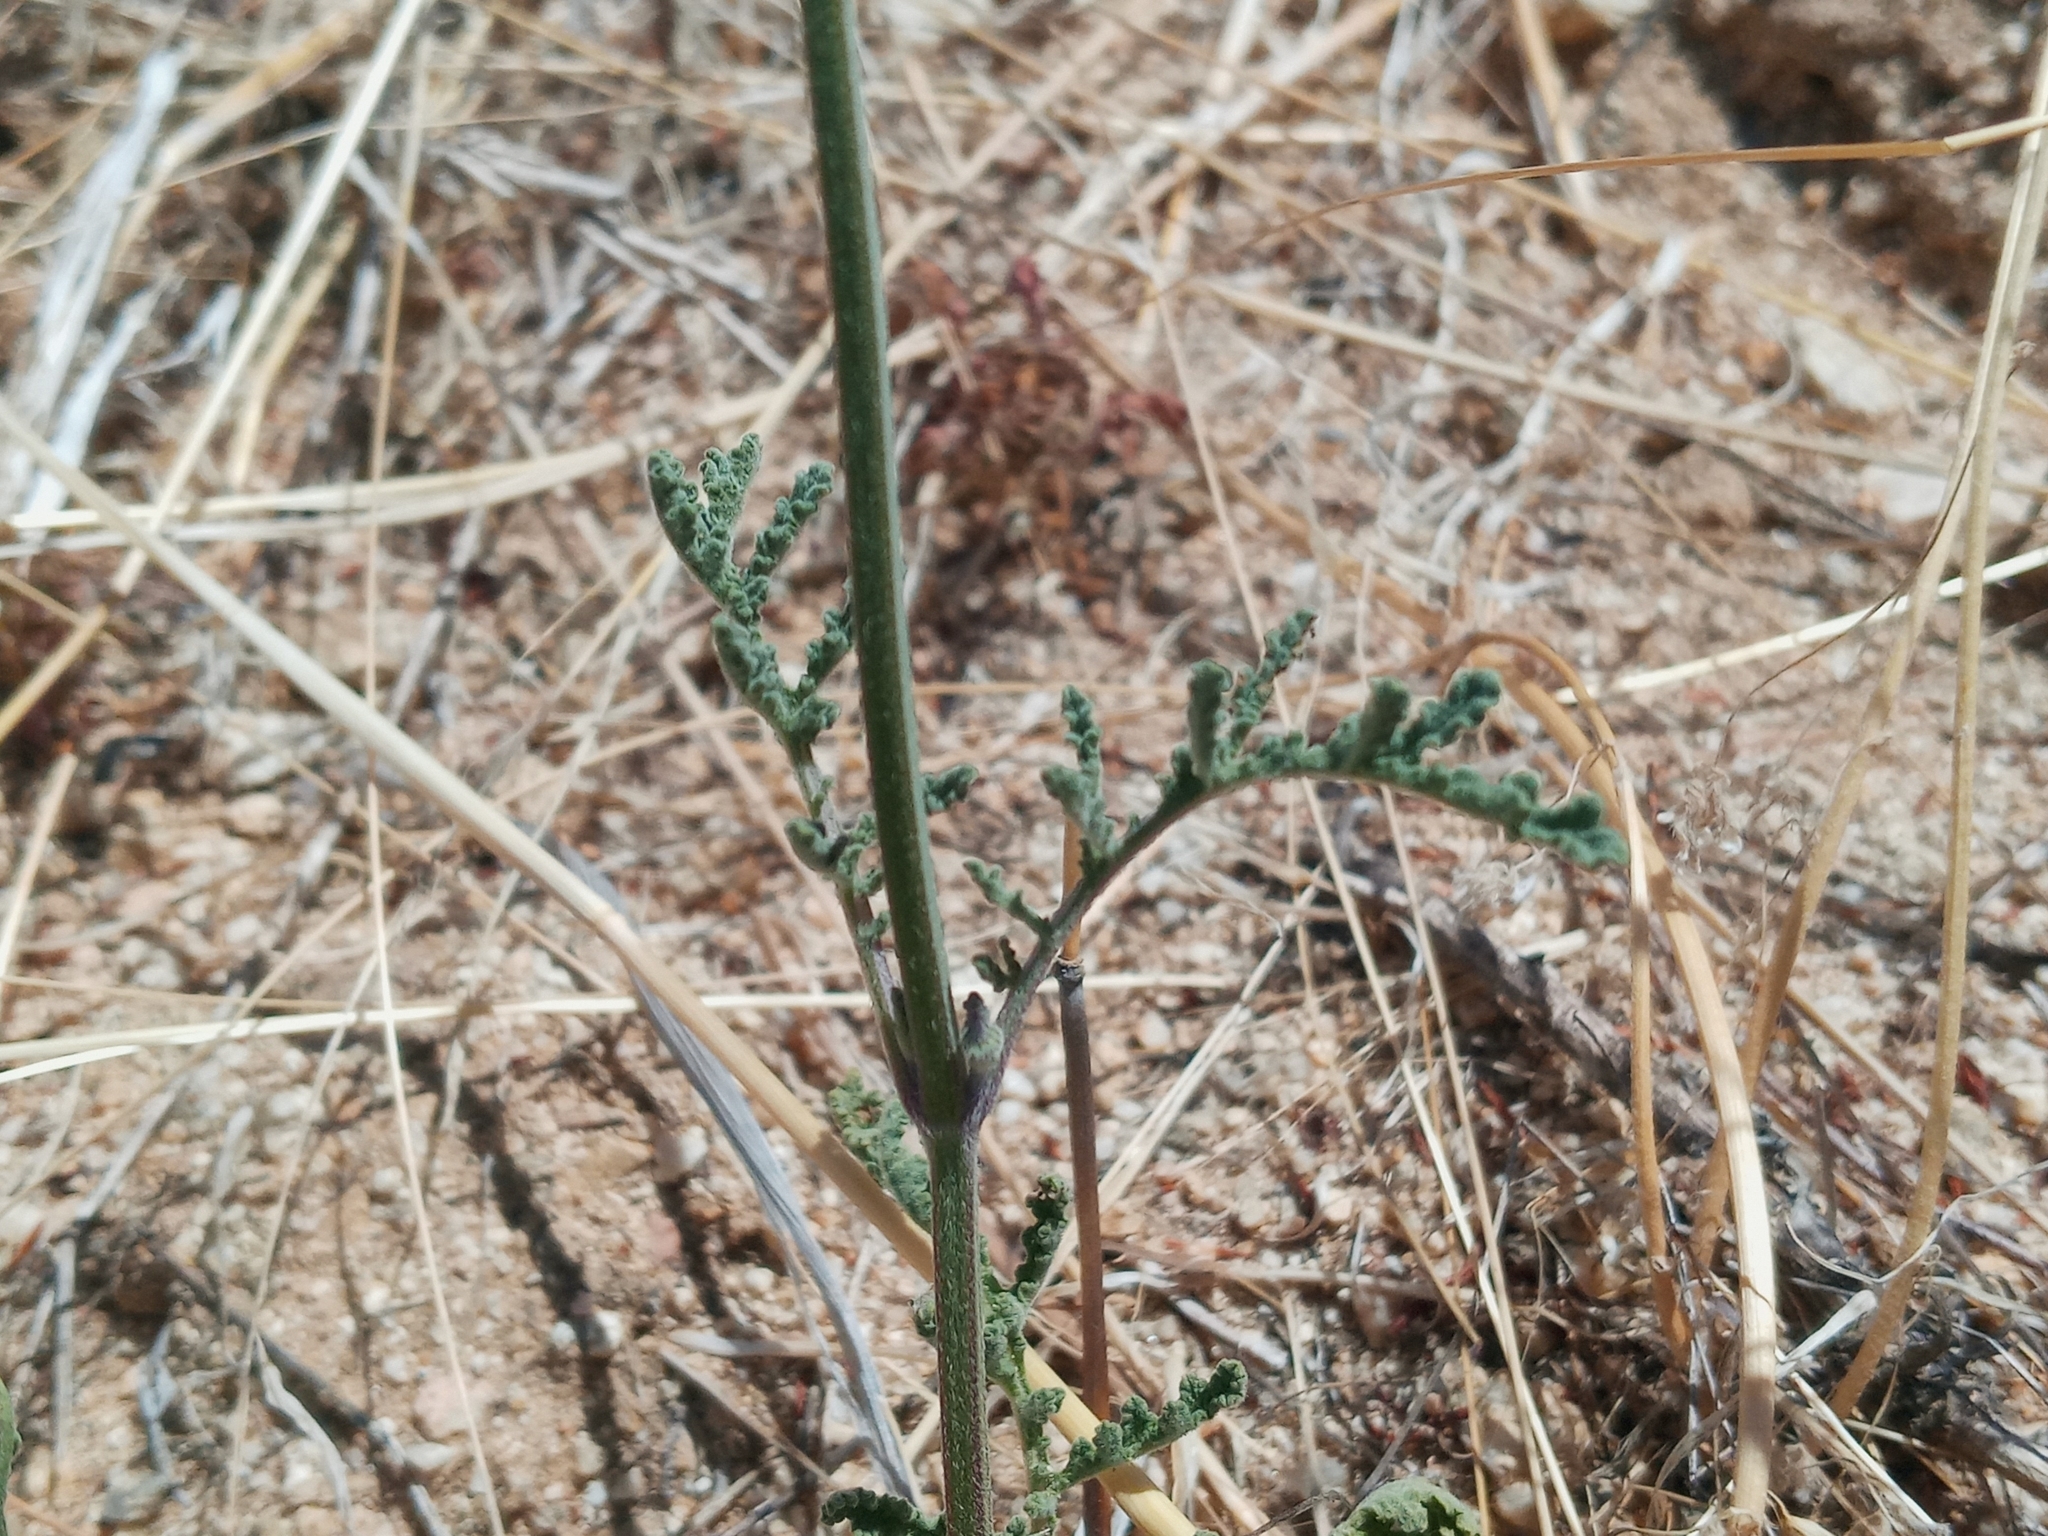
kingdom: Plantae
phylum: Tracheophyta
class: Magnoliopsida
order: Lamiales
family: Lamiaceae
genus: Salvia
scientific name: Salvia columbariae
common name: Chia
